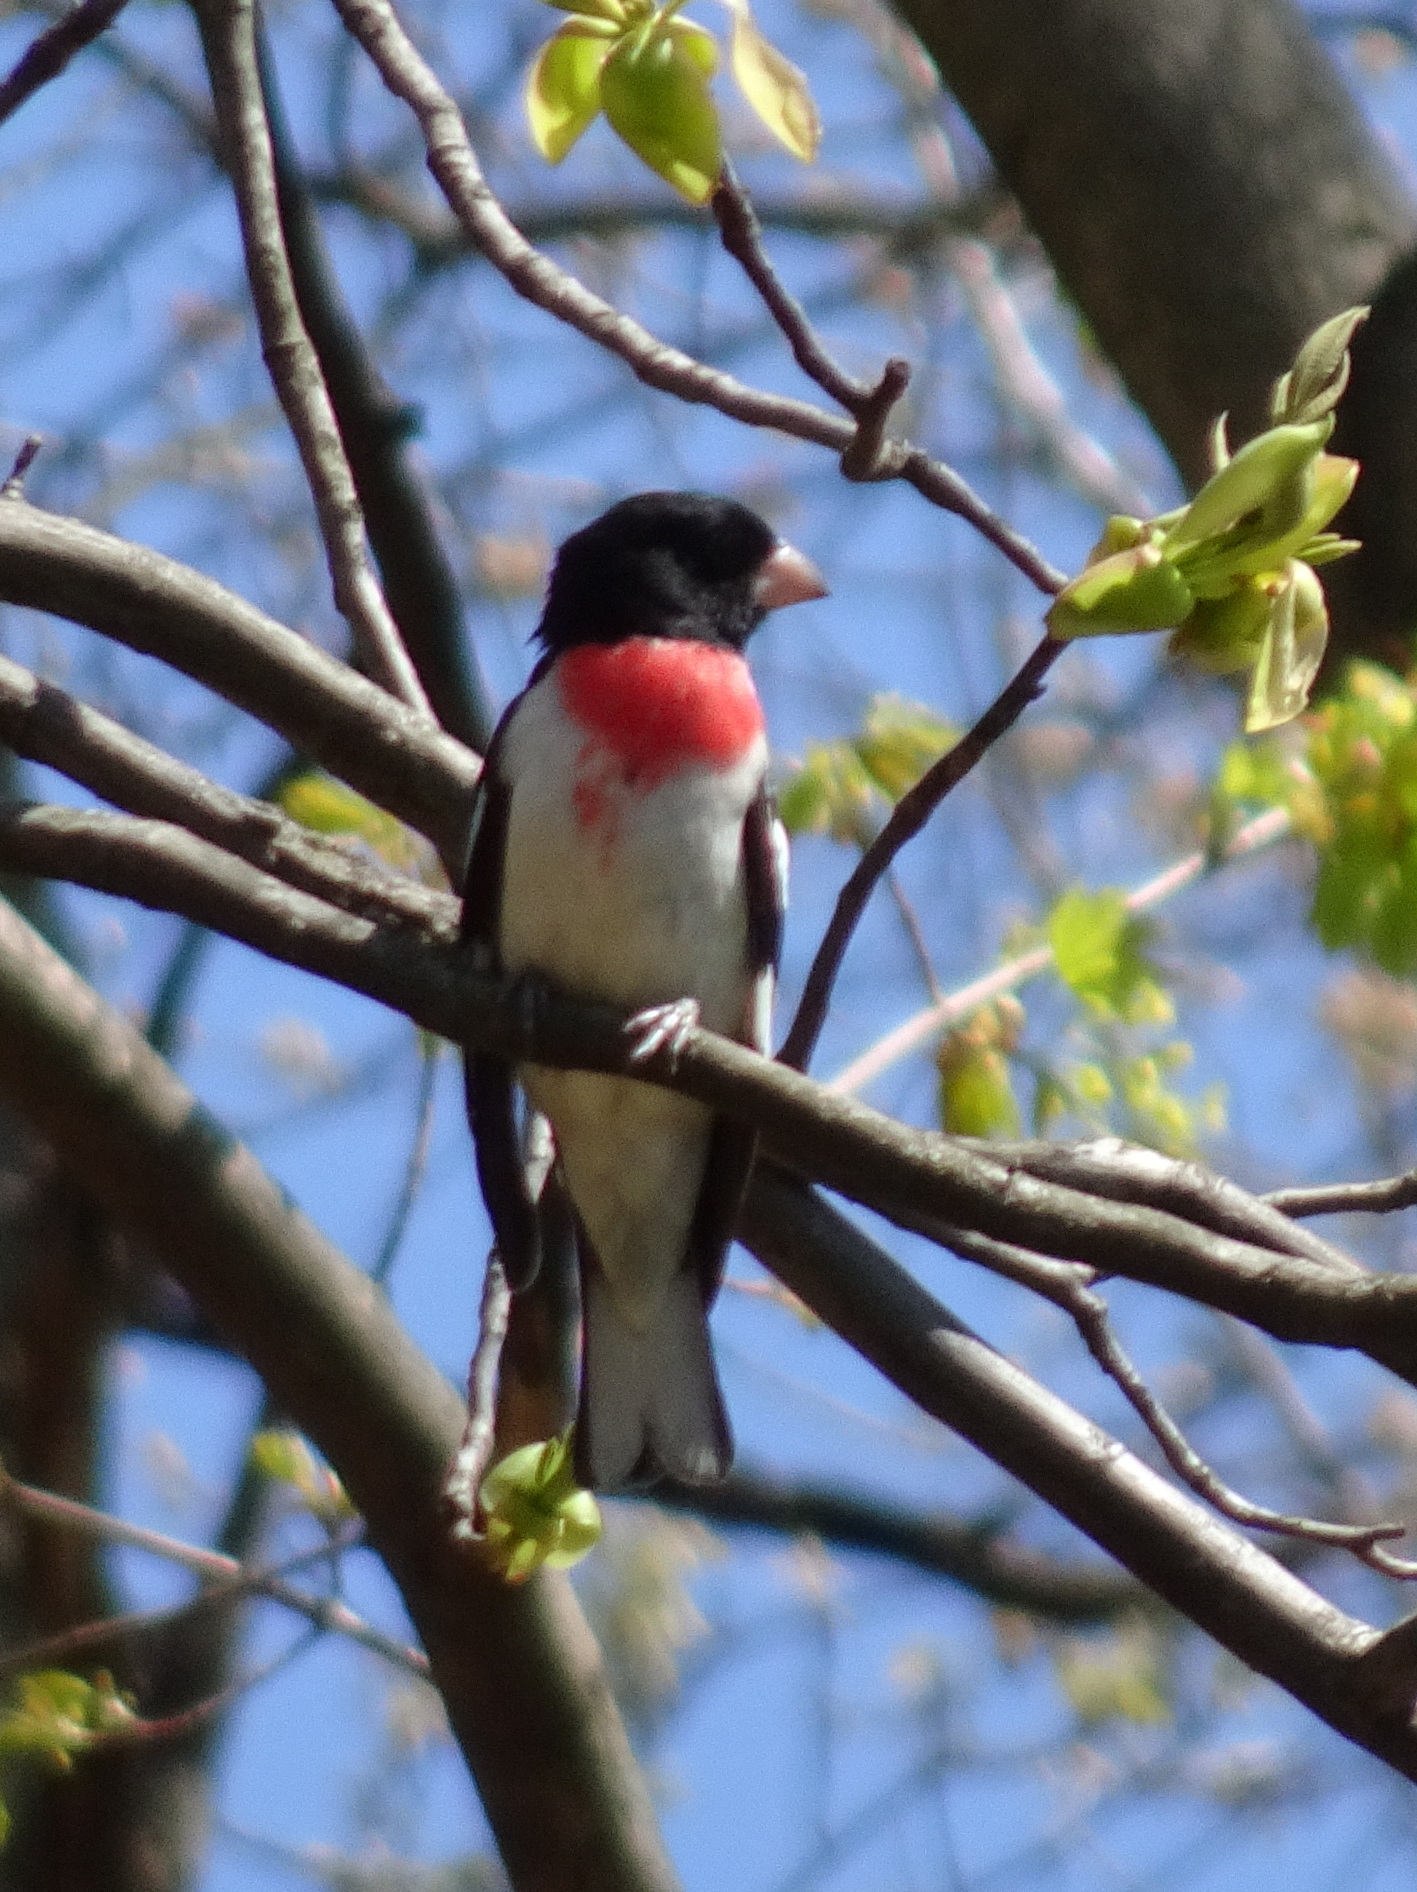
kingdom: Animalia
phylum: Chordata
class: Aves
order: Passeriformes
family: Cardinalidae
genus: Pheucticus
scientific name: Pheucticus ludovicianus
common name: Rose-breasted grosbeak
